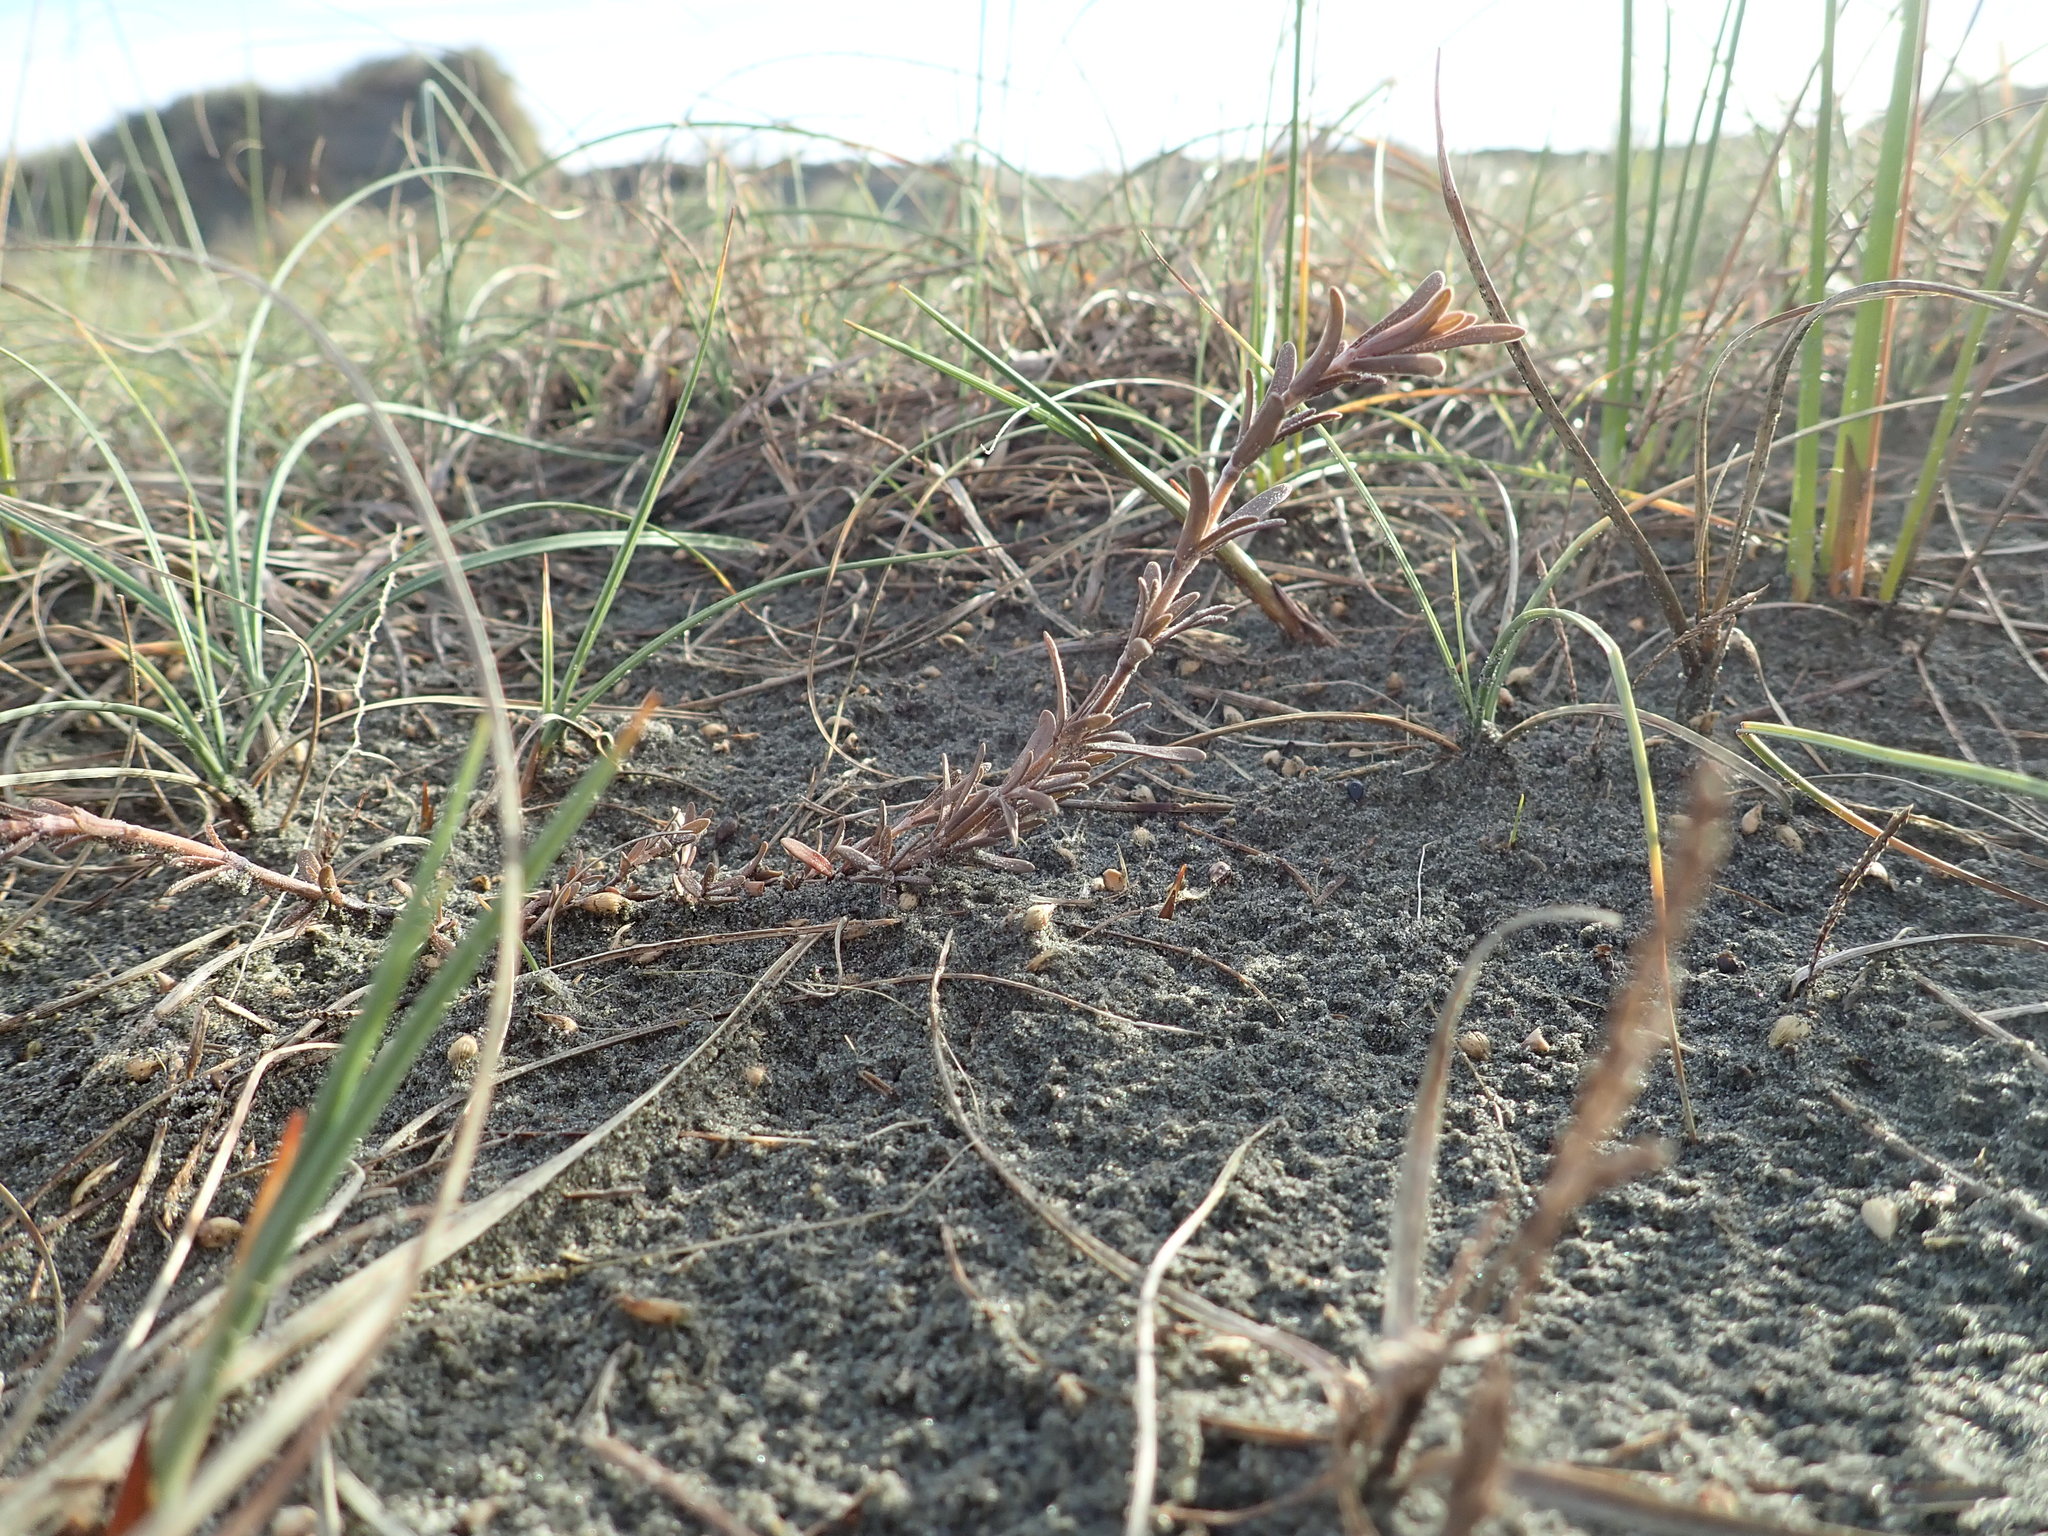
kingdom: Plantae
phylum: Tracheophyta
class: Magnoliopsida
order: Gentianales
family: Rubiaceae
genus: Coprosma
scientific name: Coprosma acerosa
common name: Sand coprosma
